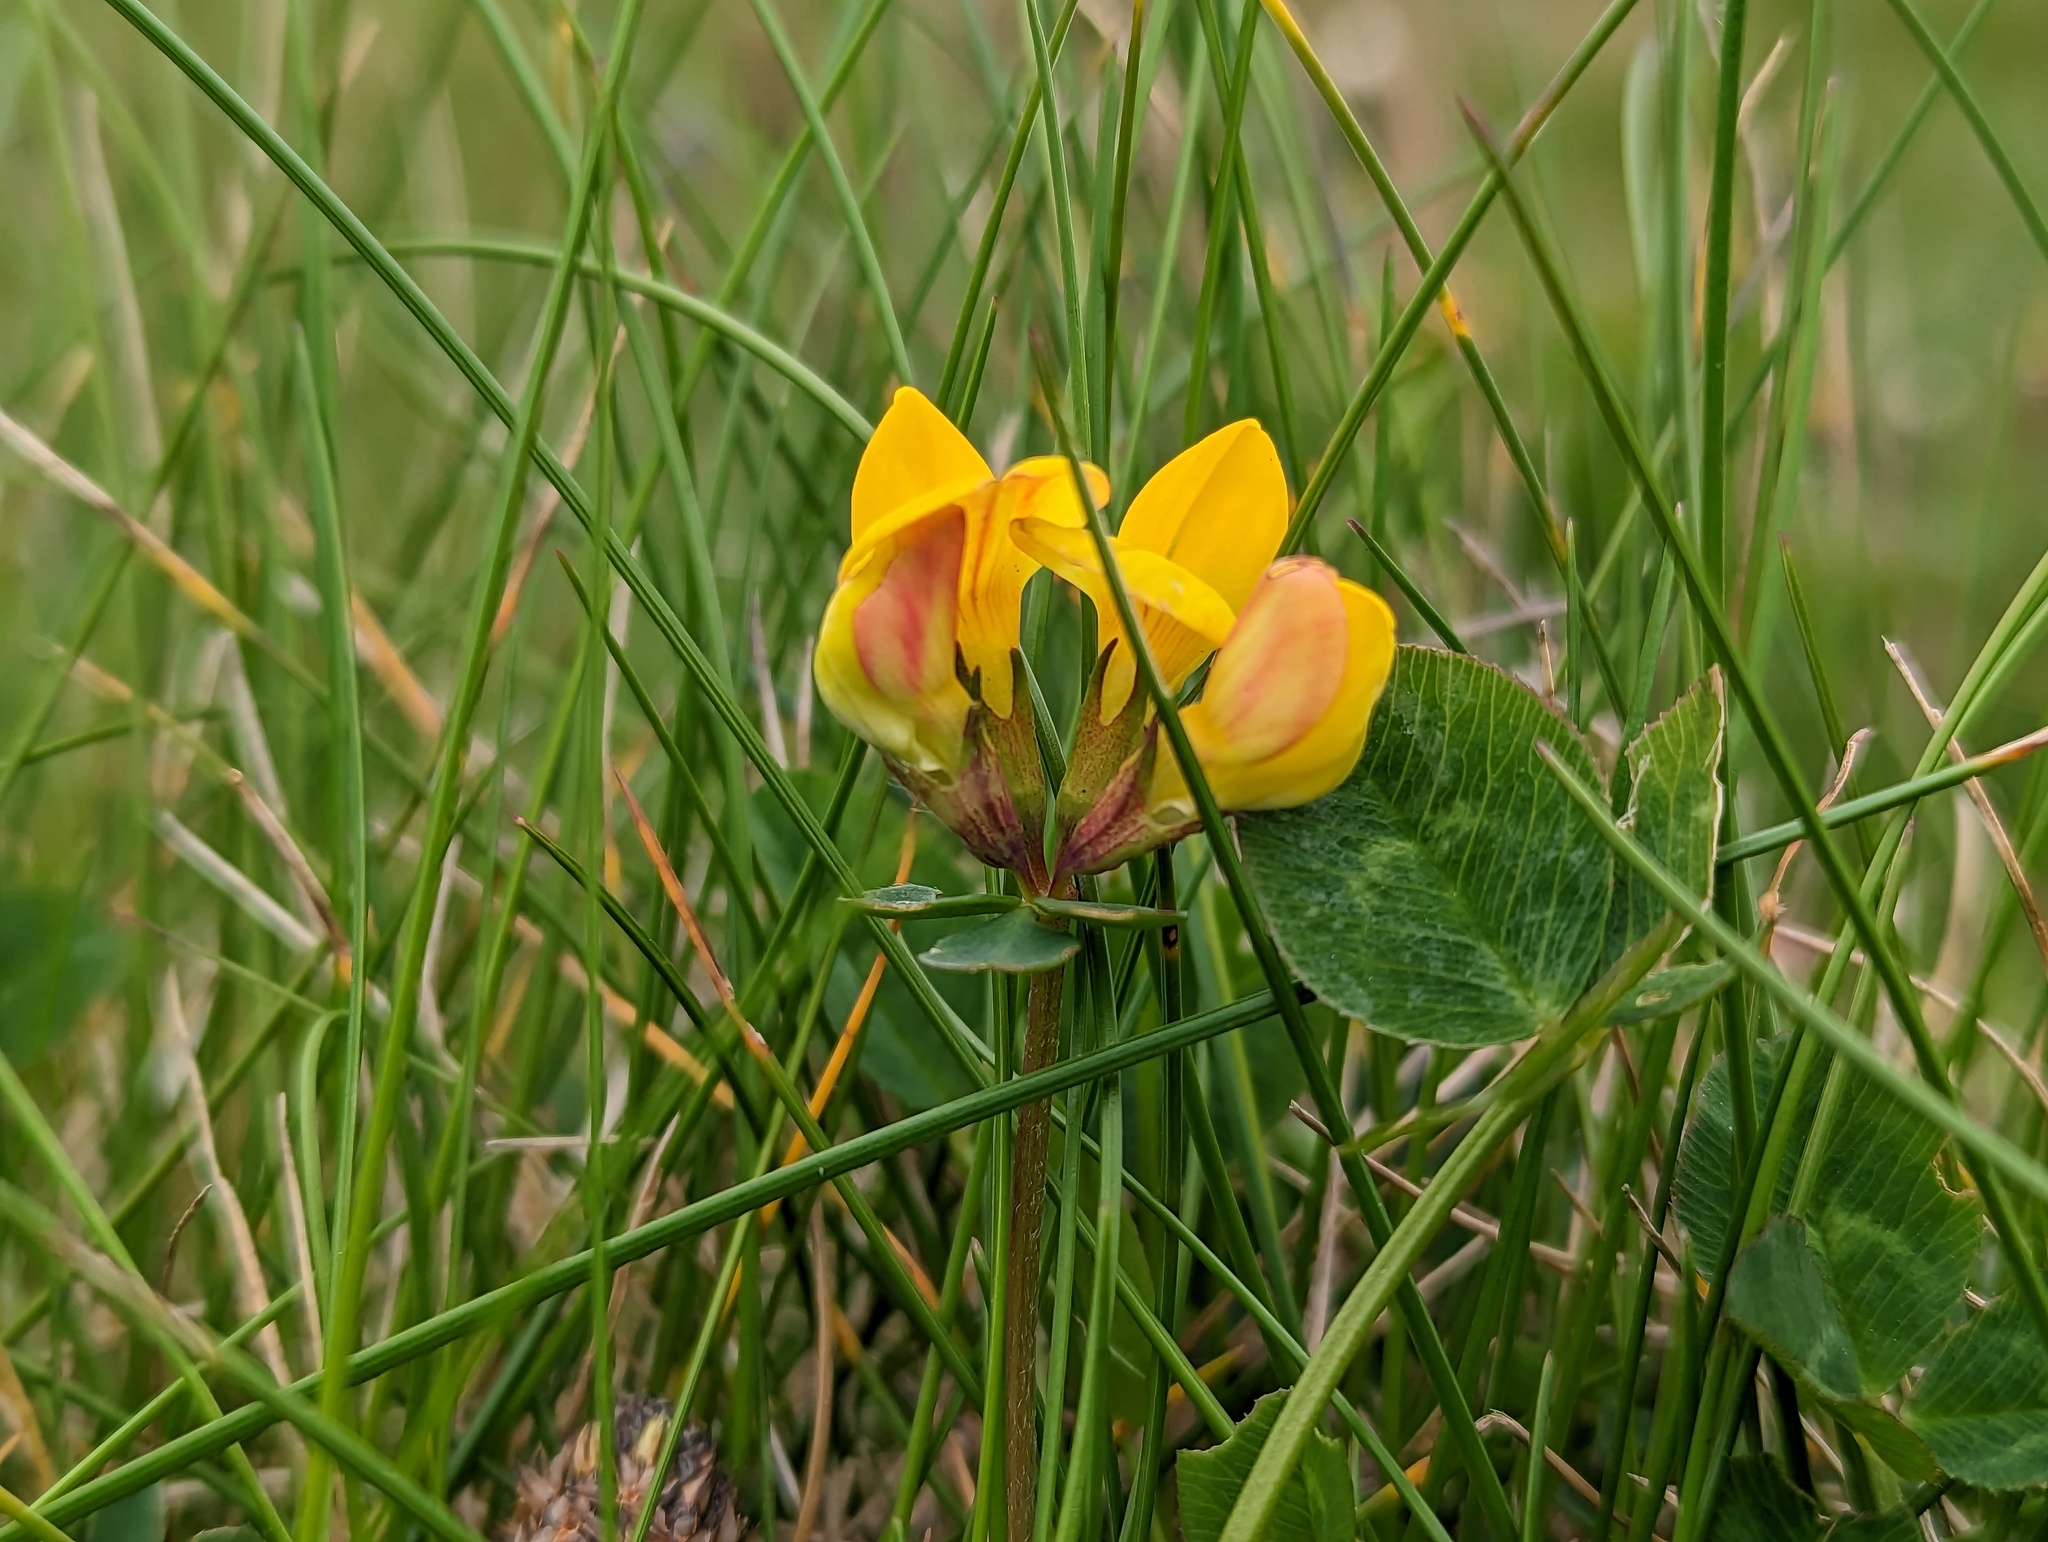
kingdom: Plantae
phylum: Tracheophyta
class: Magnoliopsida
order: Fabales
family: Fabaceae
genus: Lotus
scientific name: Lotus corniculatus
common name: Common bird's-foot-trefoil
